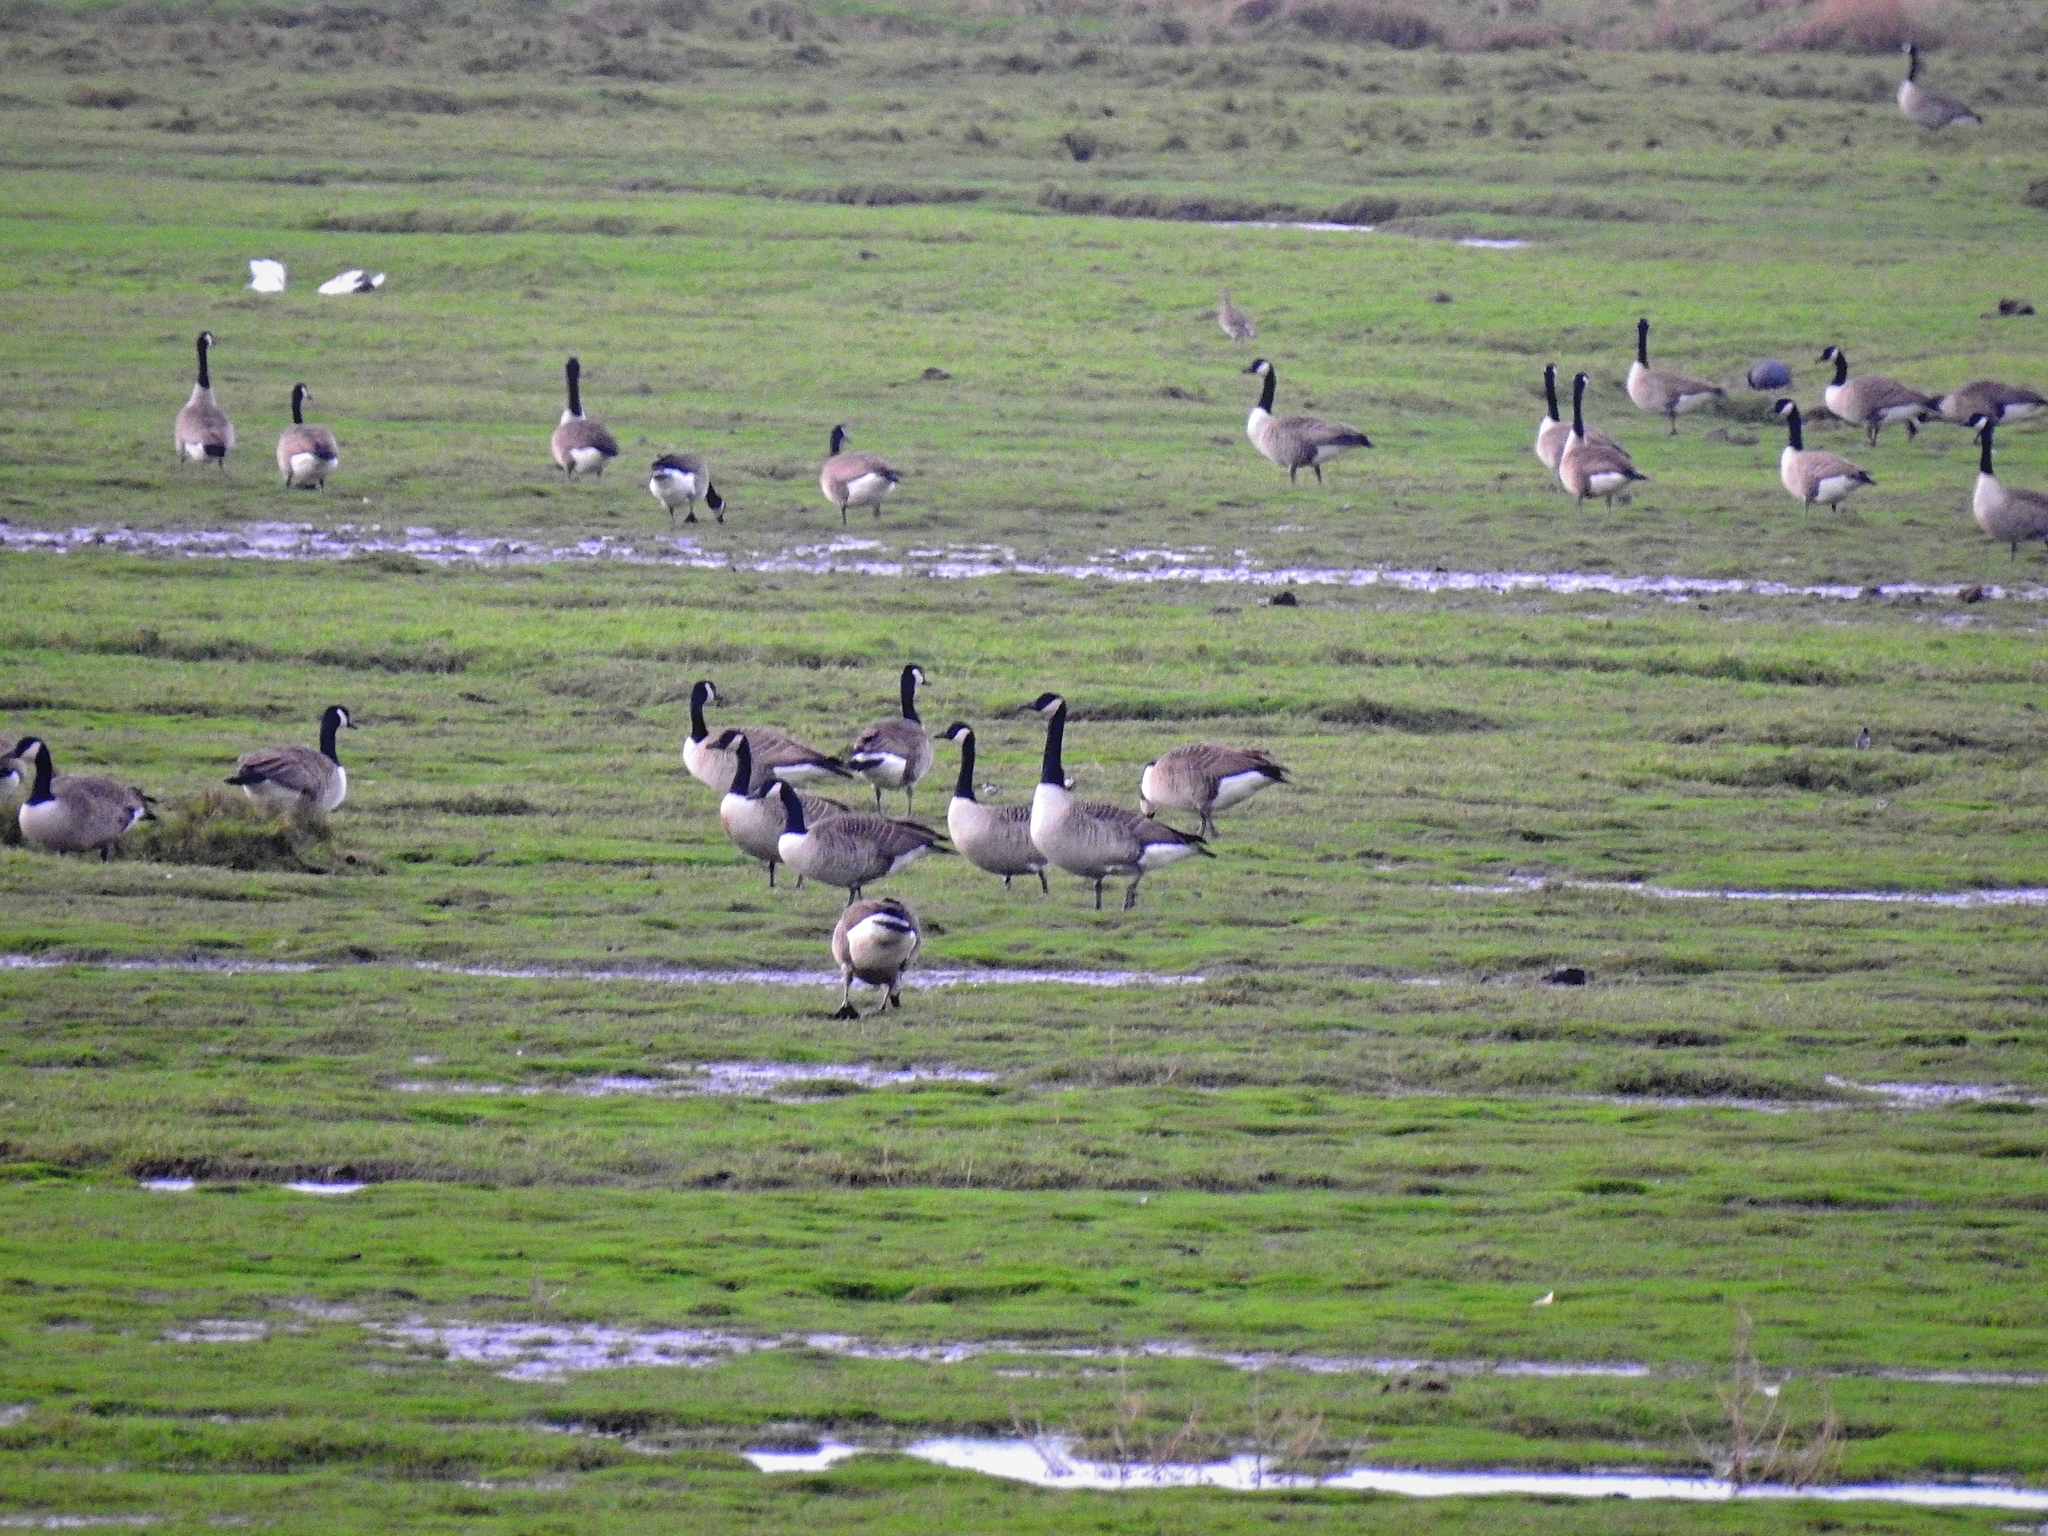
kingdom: Animalia
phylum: Chordata
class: Aves
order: Anseriformes
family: Anatidae
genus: Branta
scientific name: Branta canadensis
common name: Canada goose
